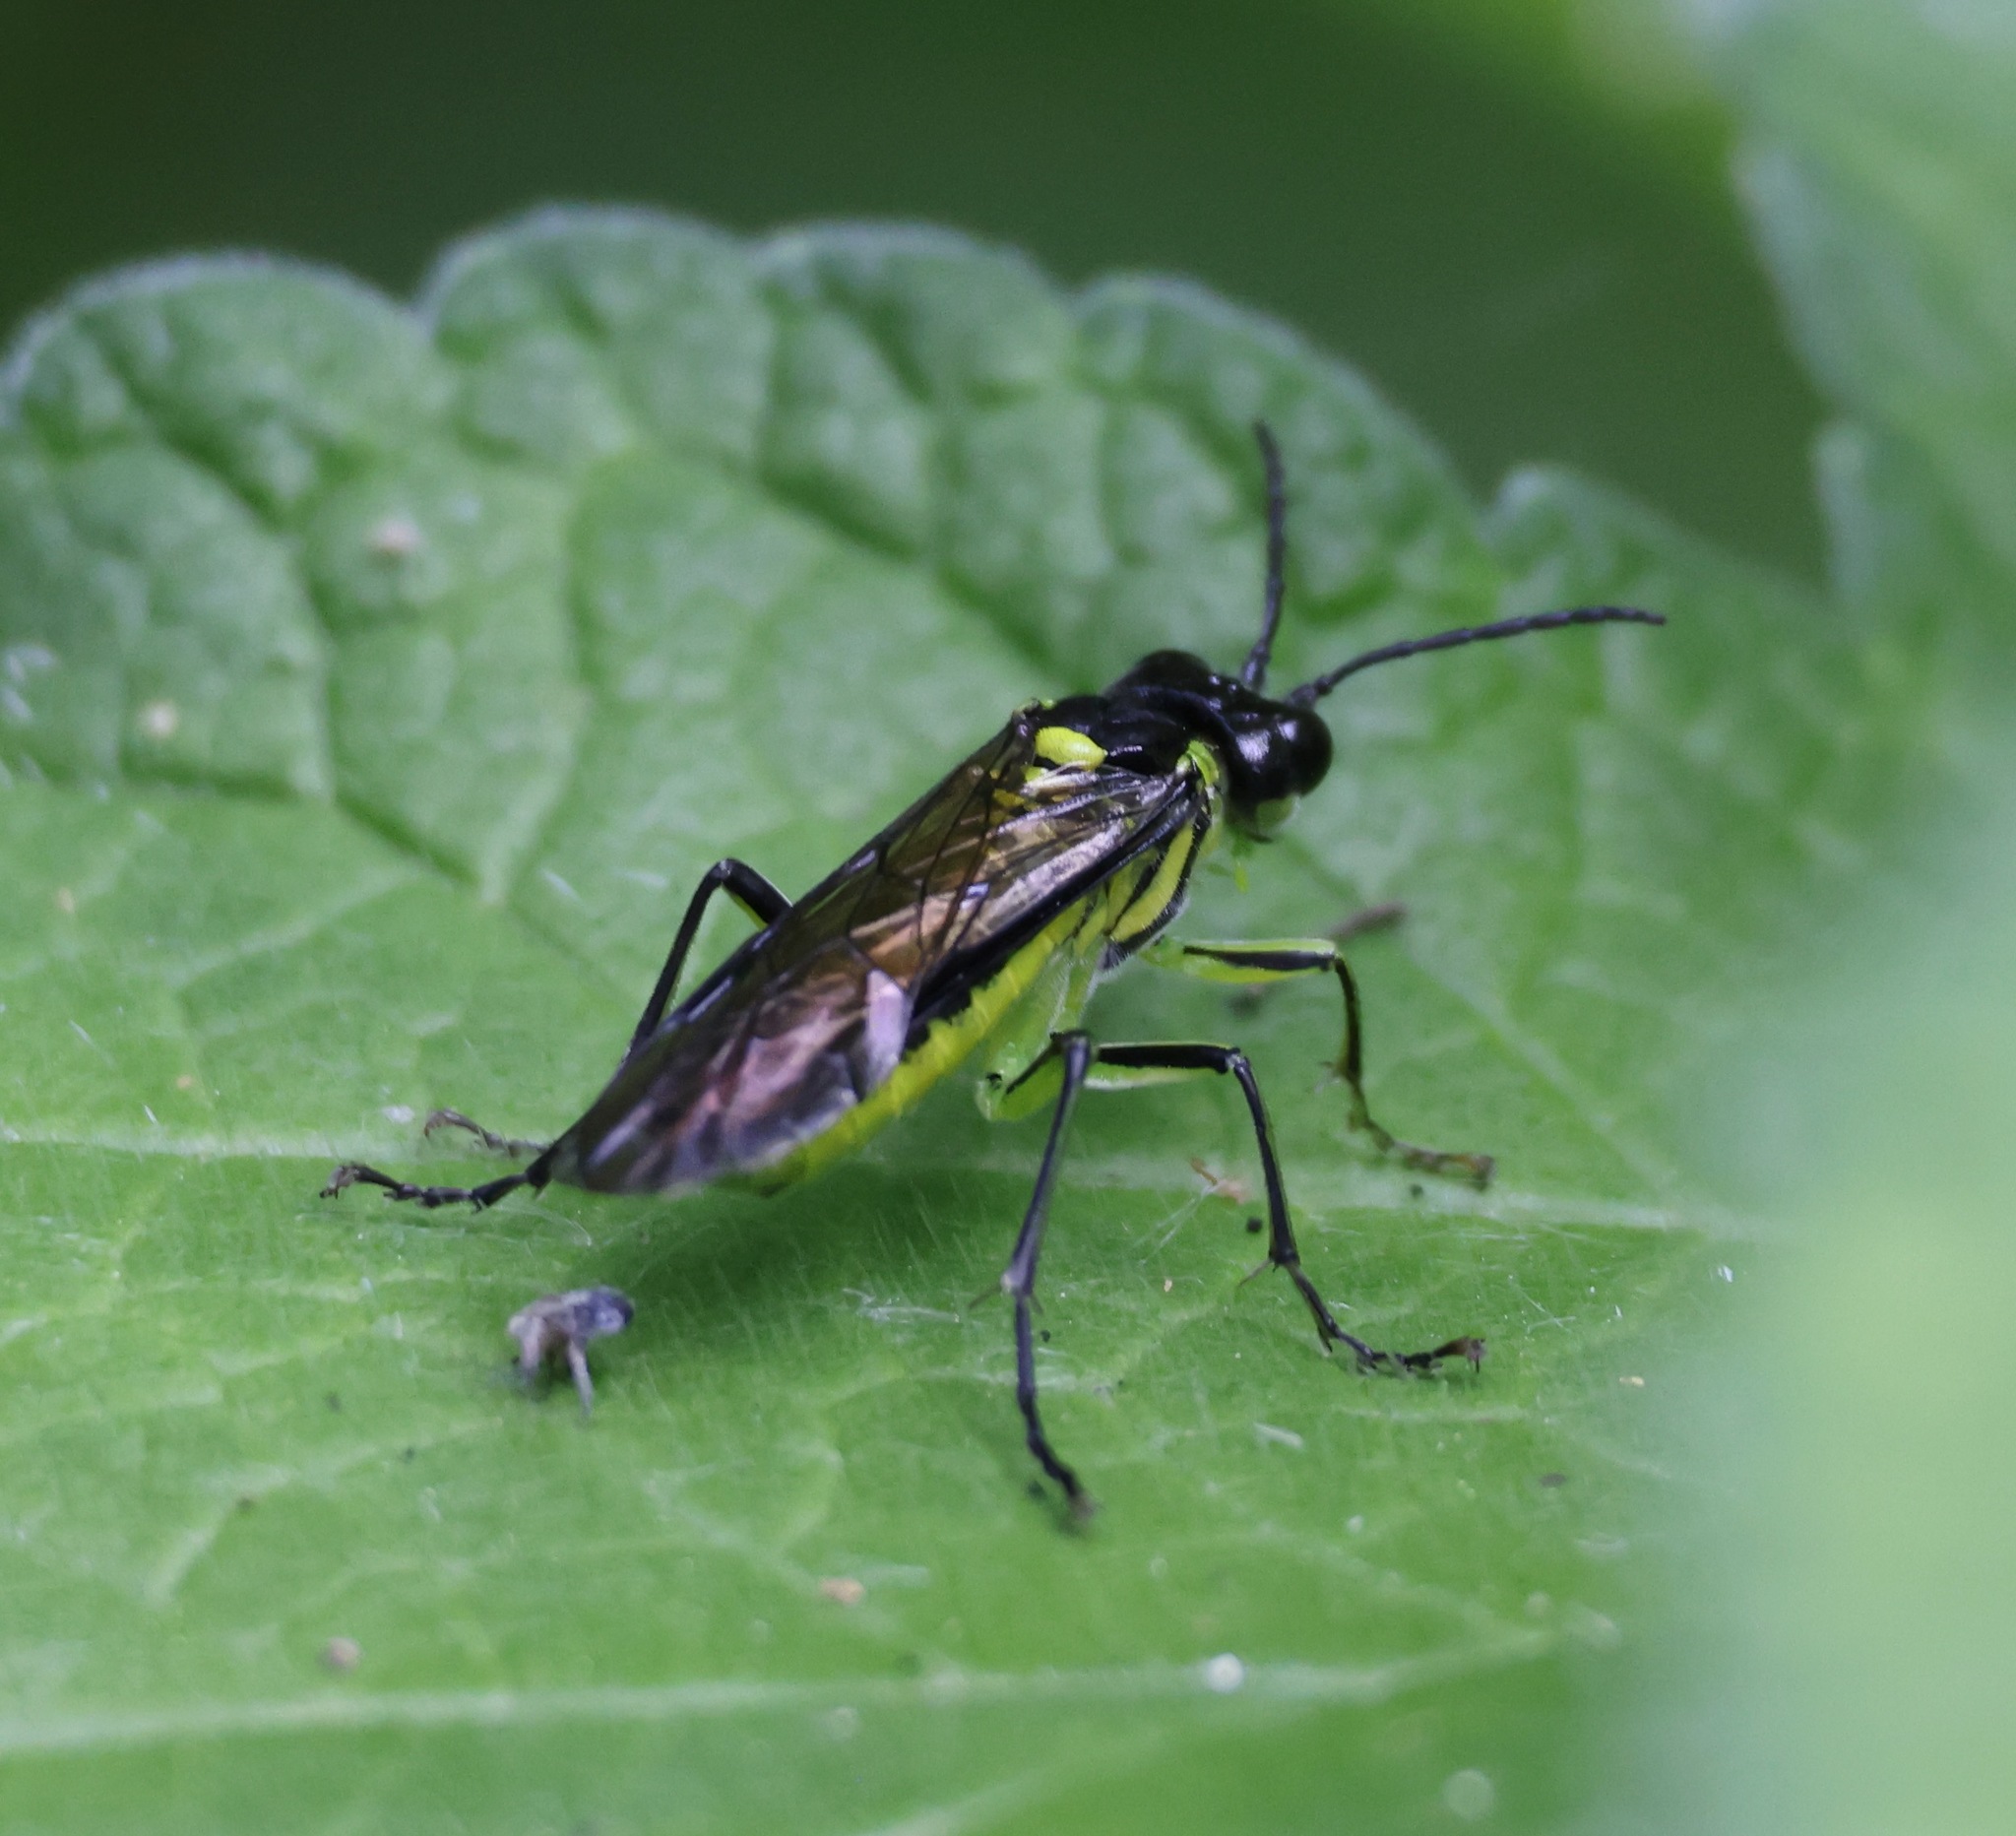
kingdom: Animalia
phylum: Arthropoda
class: Insecta
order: Hymenoptera
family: Tenthredinidae
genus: Tenthredo
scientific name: Tenthredo mesomela
